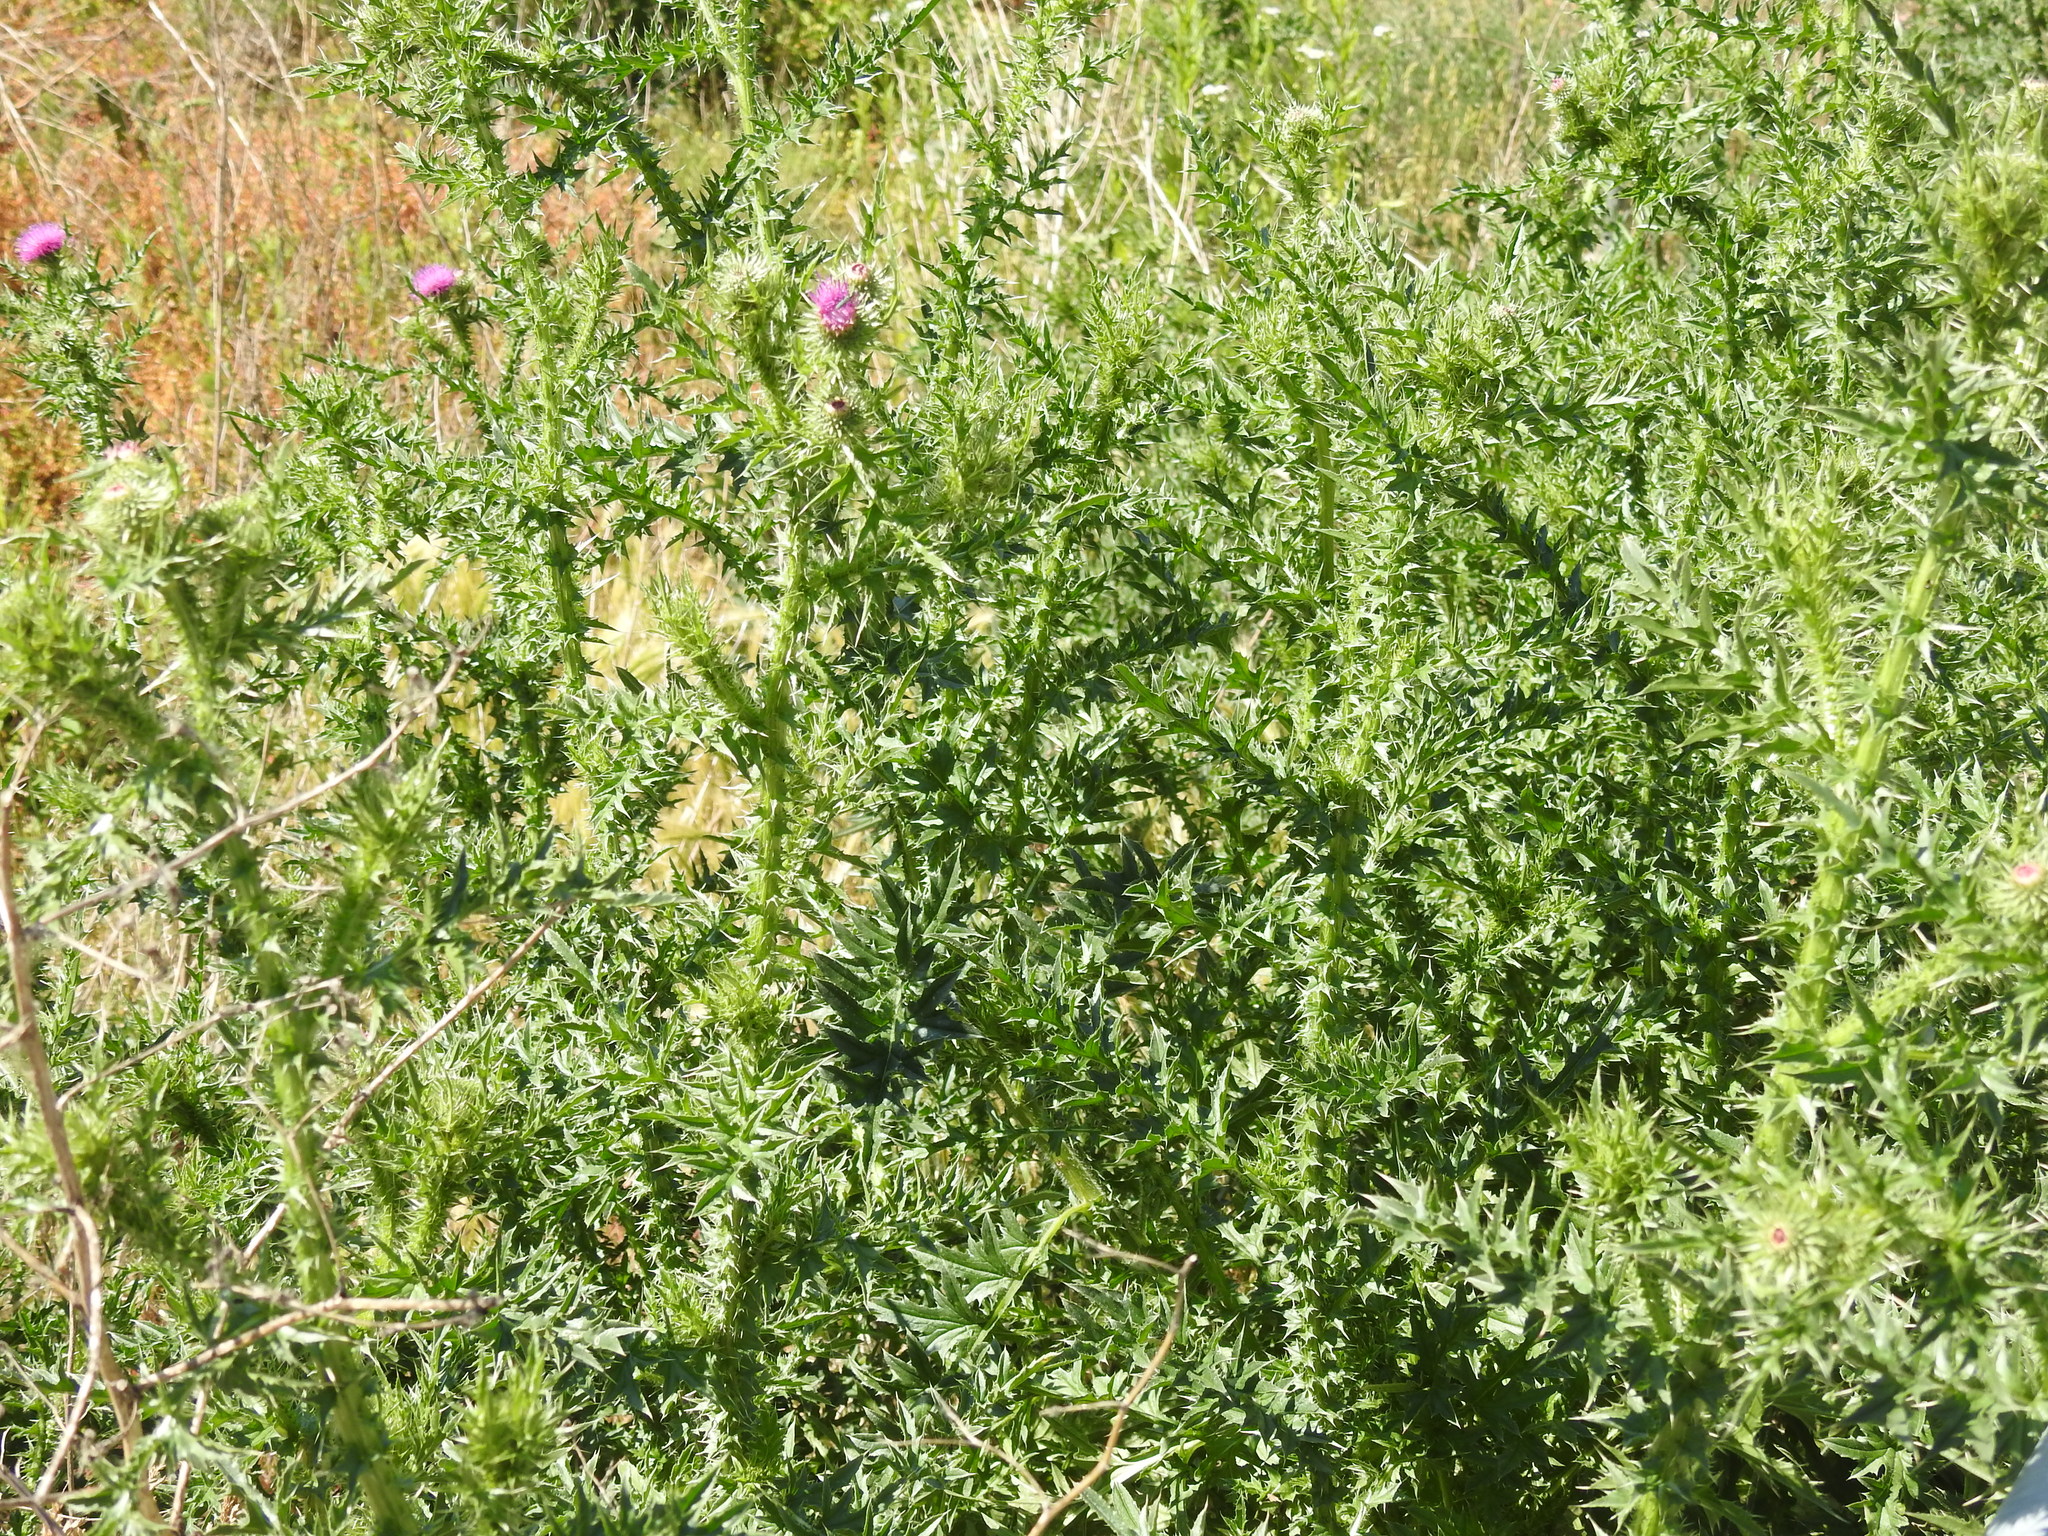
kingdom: Plantae
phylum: Tracheophyta
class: Magnoliopsida
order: Asterales
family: Asteraceae
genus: Carduus
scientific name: Carduus acanthoides
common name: Plumeless thistle
